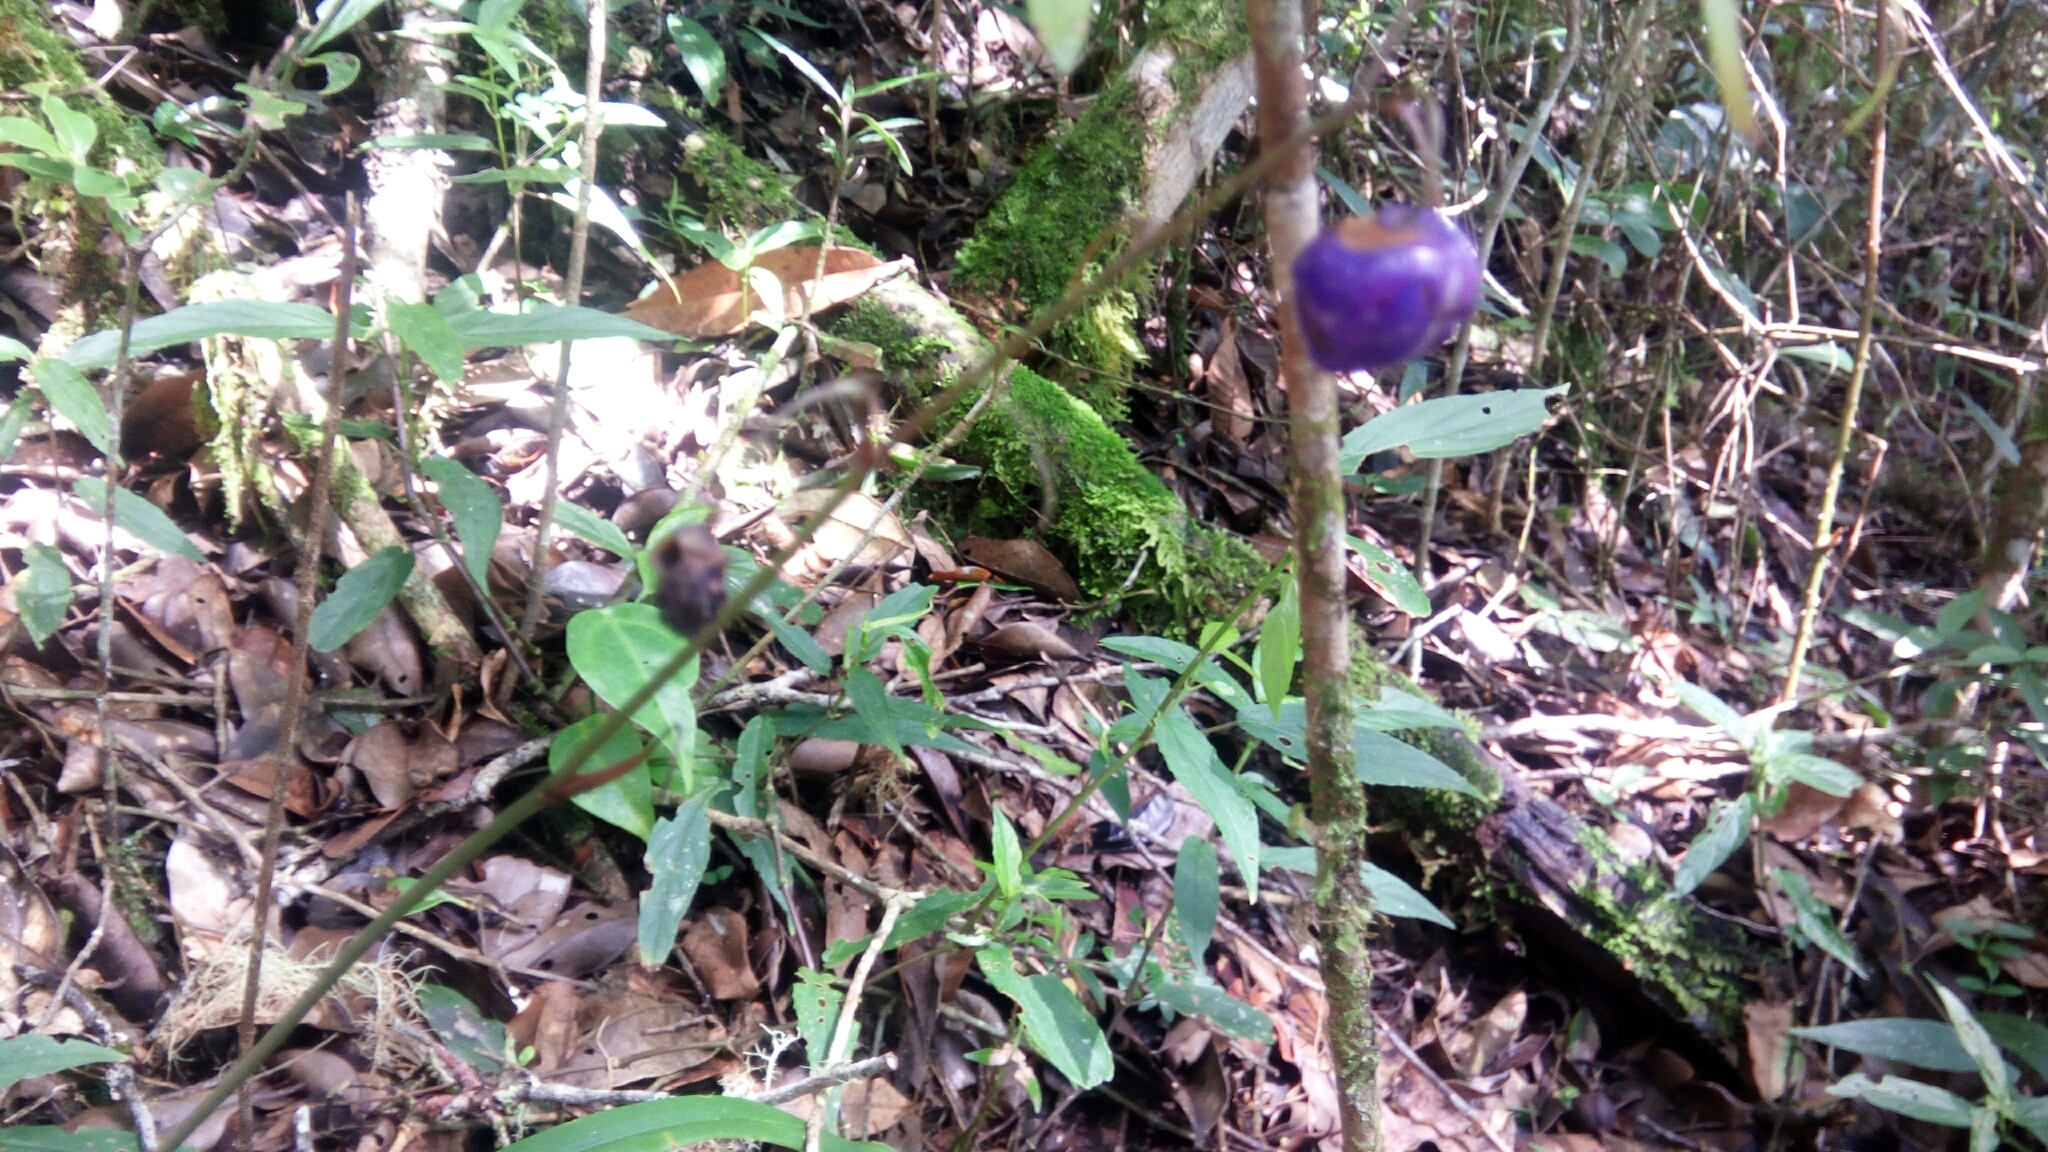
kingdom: Plantae
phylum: Tracheophyta
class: Liliopsida
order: Asparagales
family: Asphodelaceae
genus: Dianella
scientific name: Dianella ensifolia
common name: New zealand lilyplant
